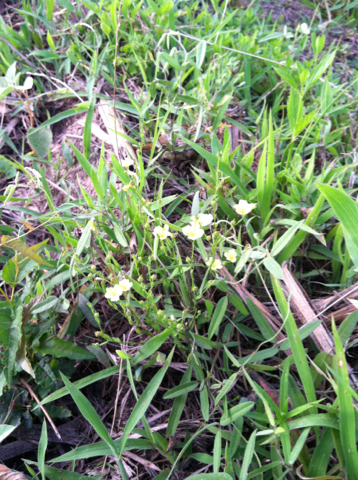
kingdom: Plantae
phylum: Tracheophyta
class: Magnoliopsida
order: Malpighiales
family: Hypericaceae
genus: Hypericum
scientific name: Hypericum drummondii
